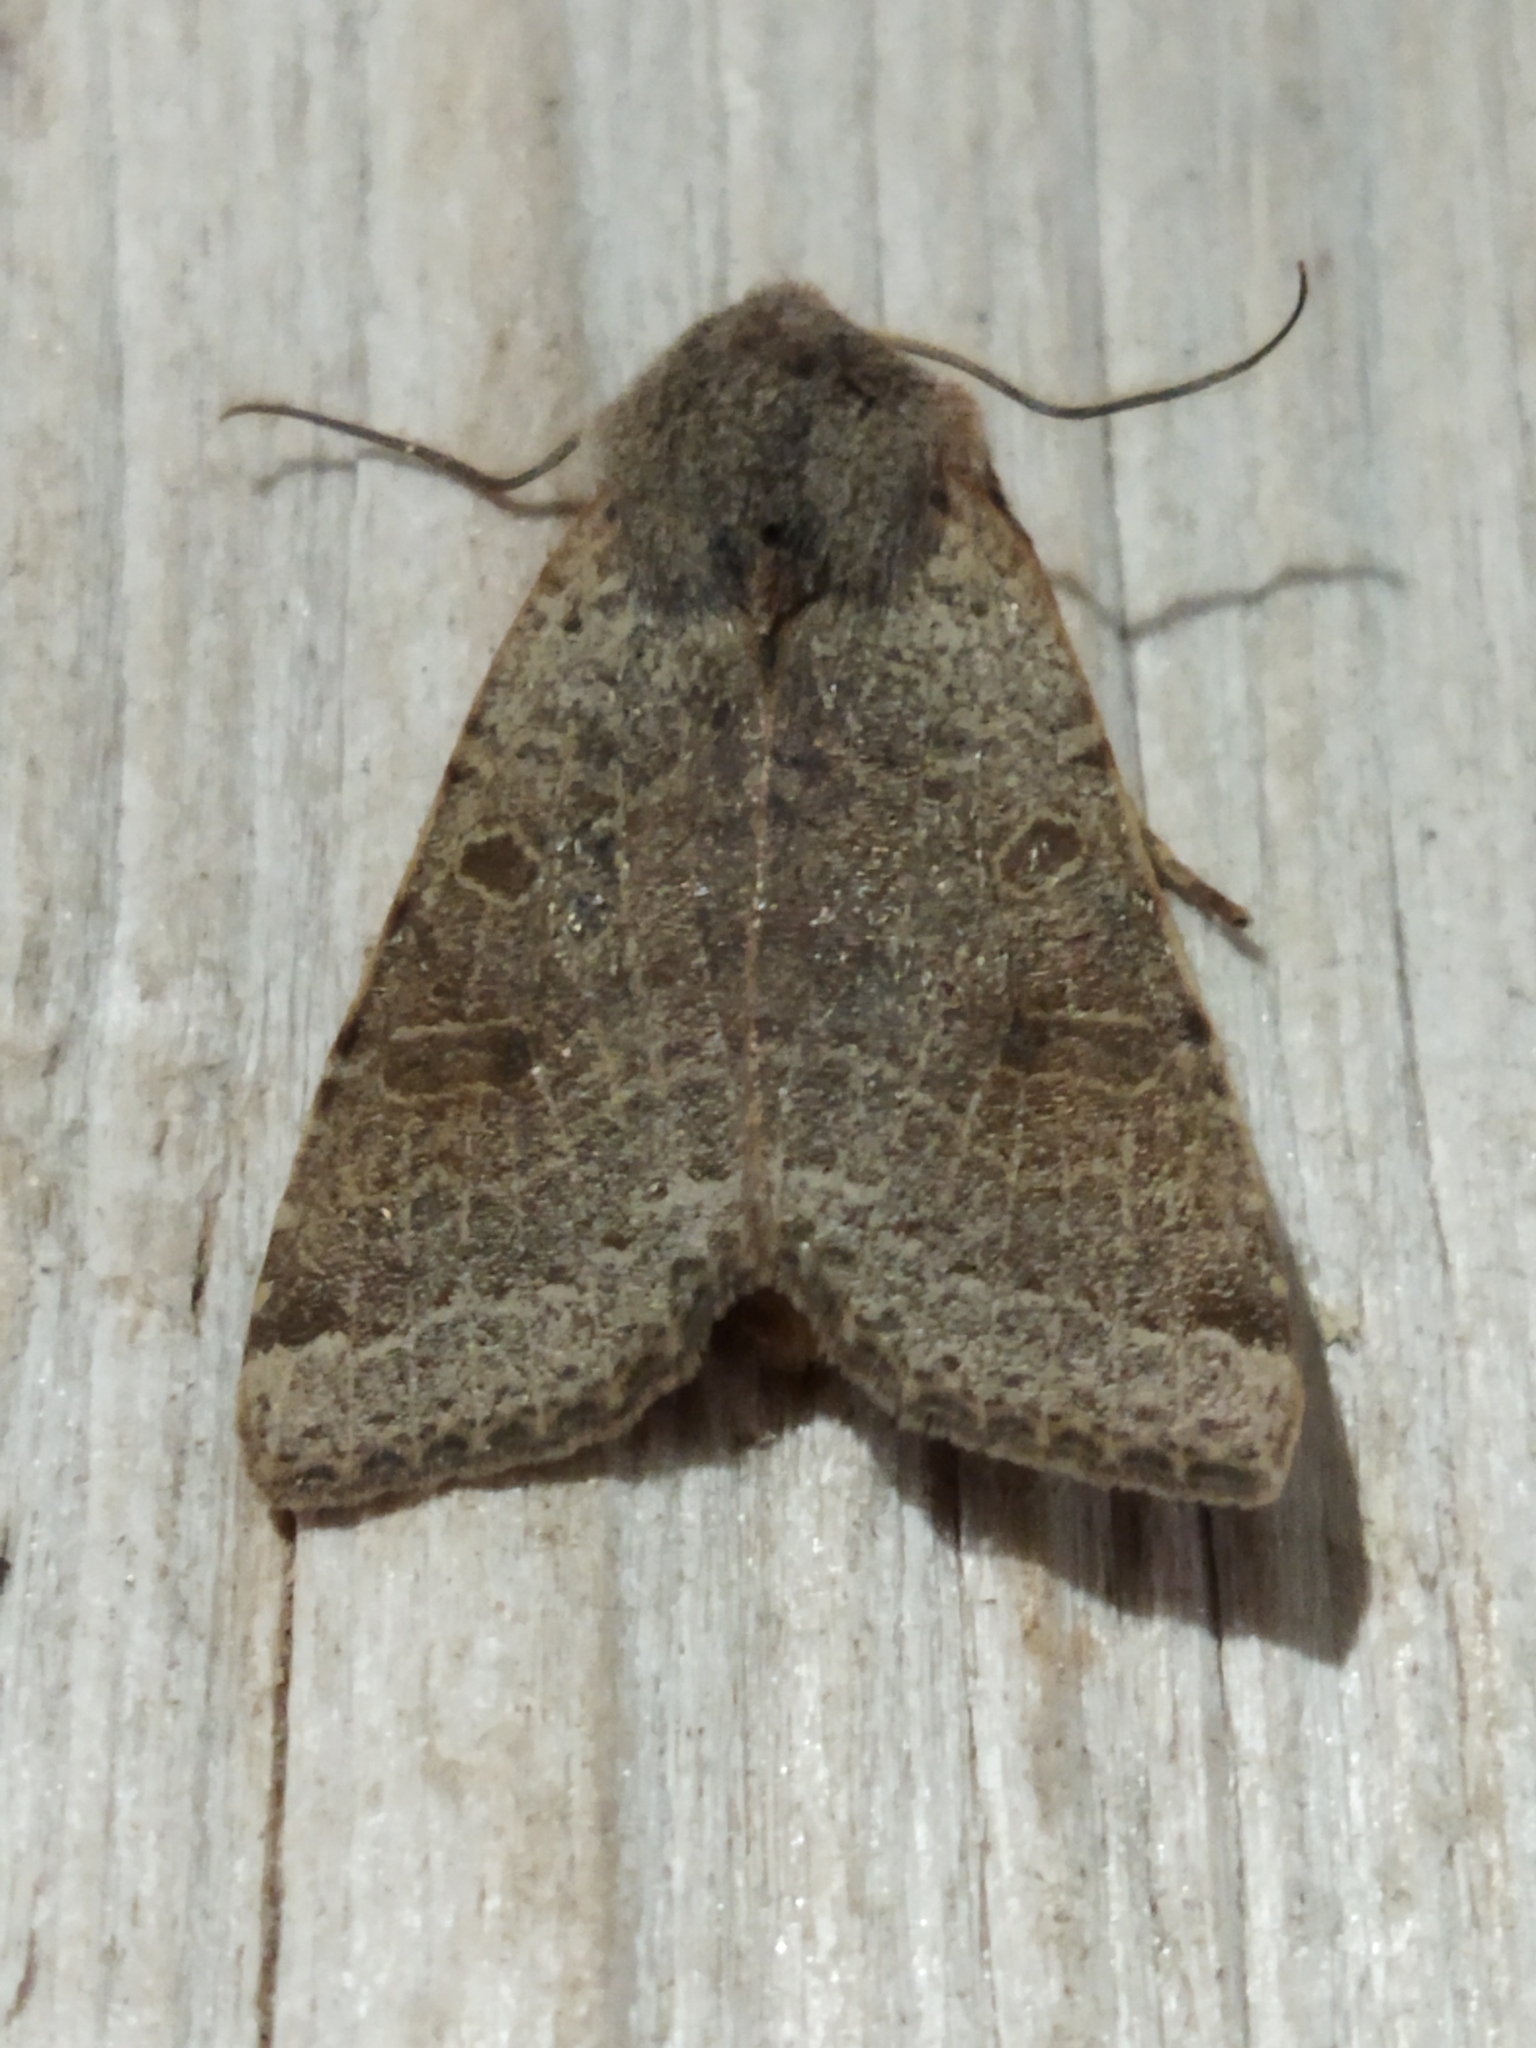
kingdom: Animalia
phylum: Arthropoda
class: Insecta
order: Lepidoptera
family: Noctuidae
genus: Agrochola
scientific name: Agrochola lychnidis
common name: Beaded chestnut
